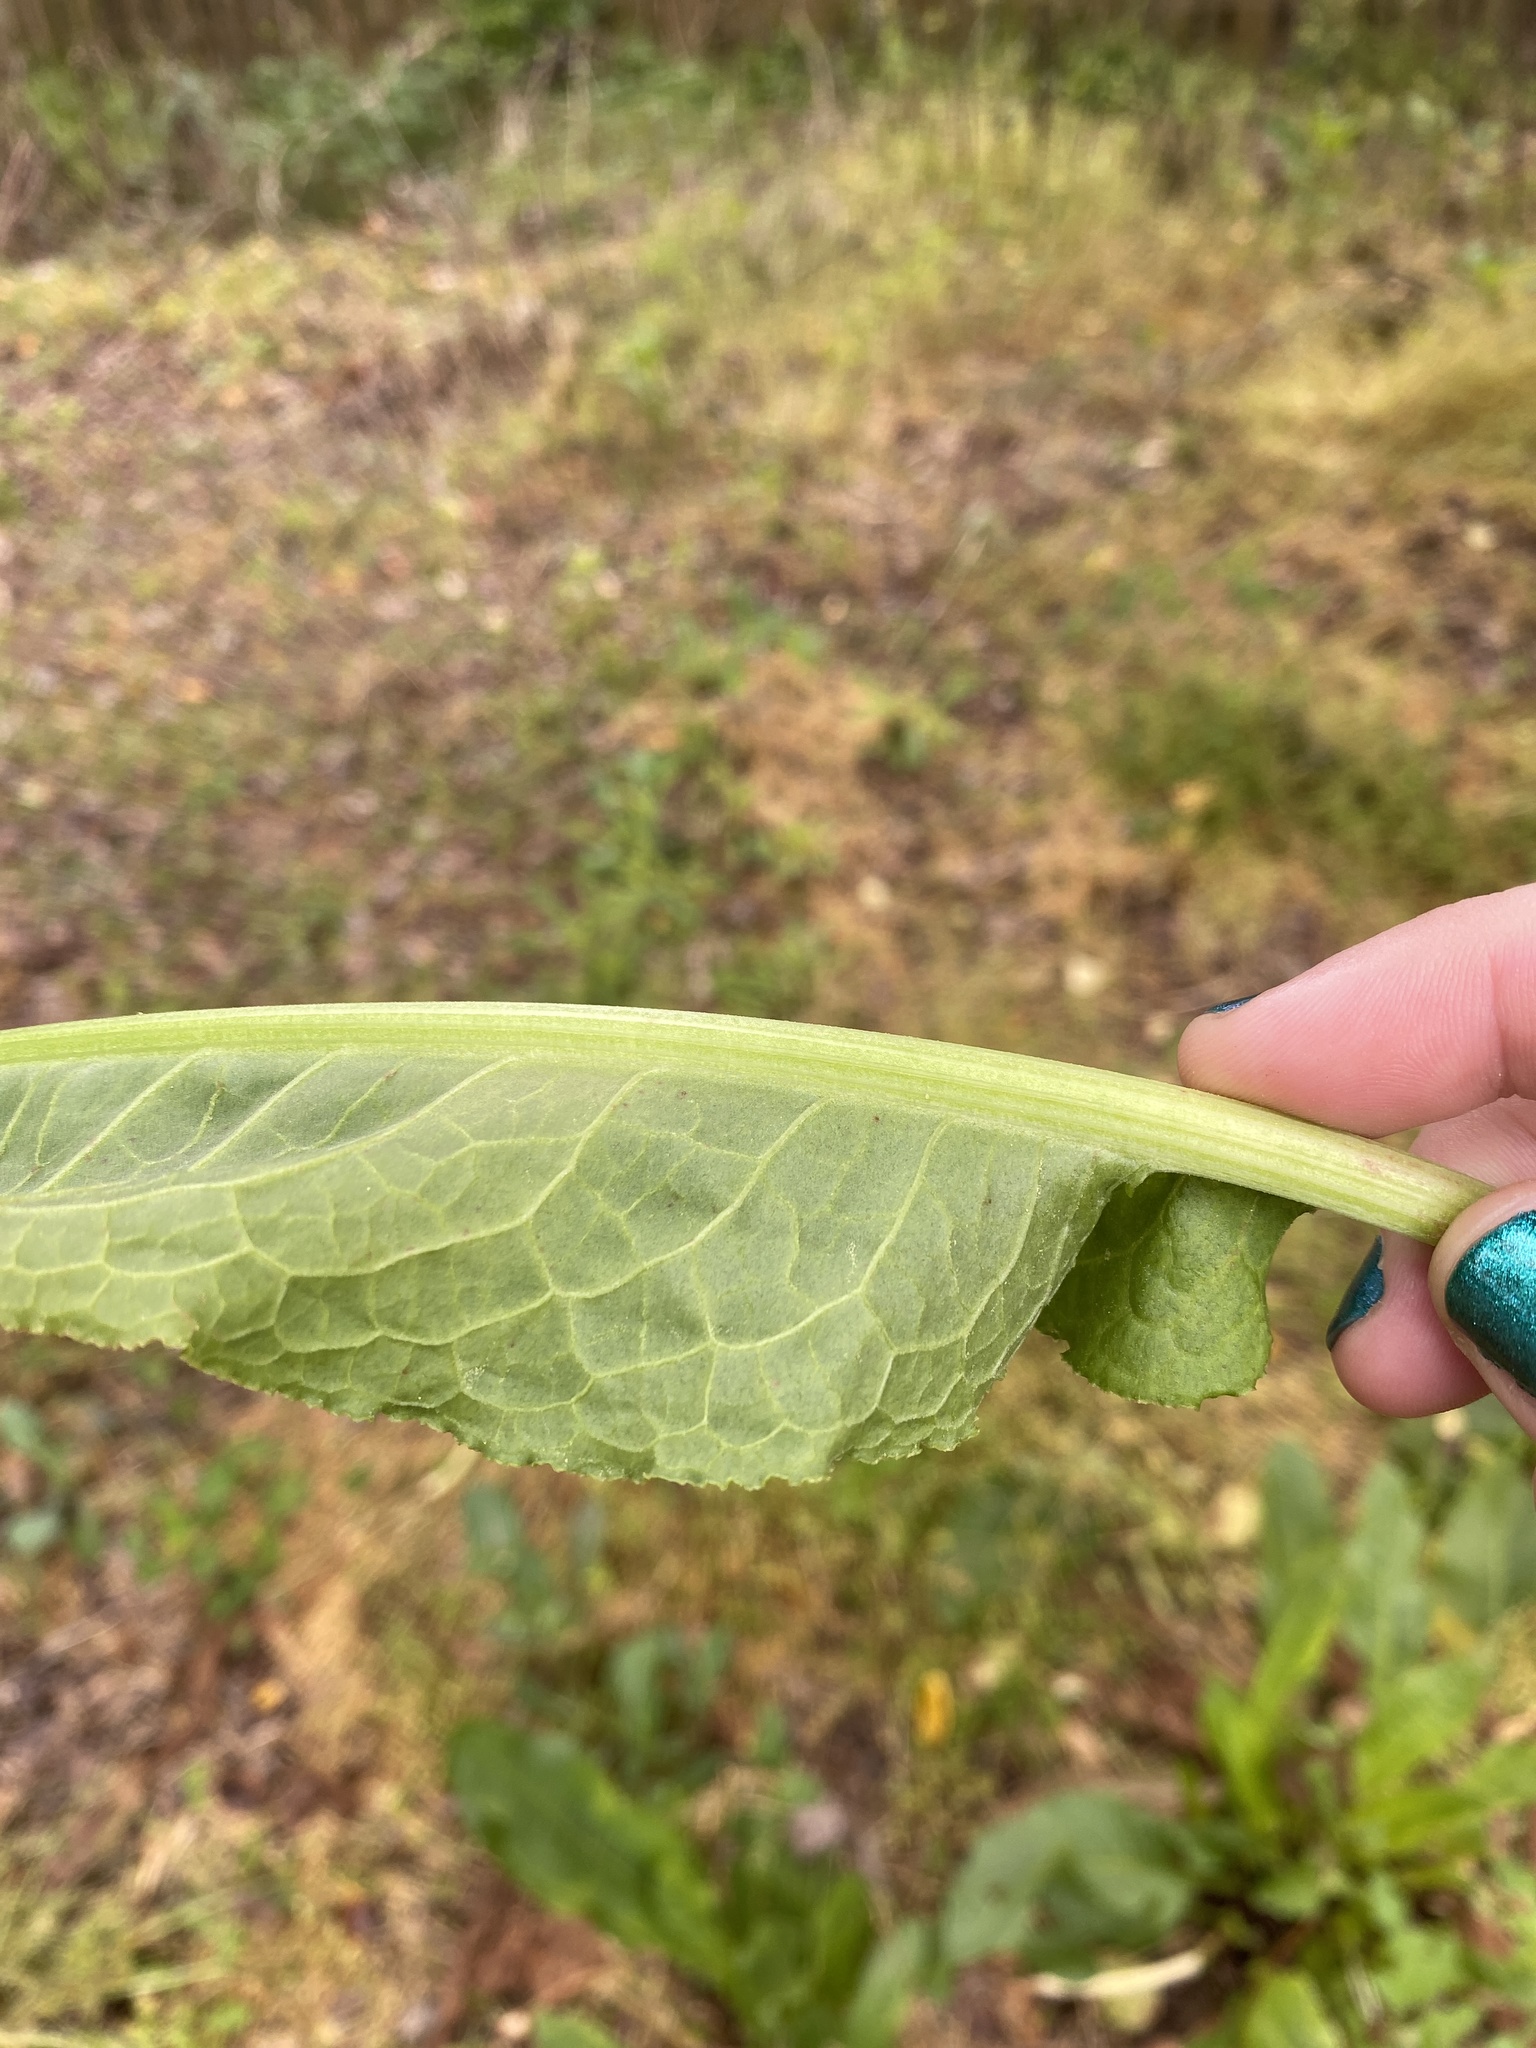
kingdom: Plantae
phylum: Tracheophyta
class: Magnoliopsida
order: Caryophyllales
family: Polygonaceae
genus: Rumex
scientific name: Rumex crispus
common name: Curled dock
